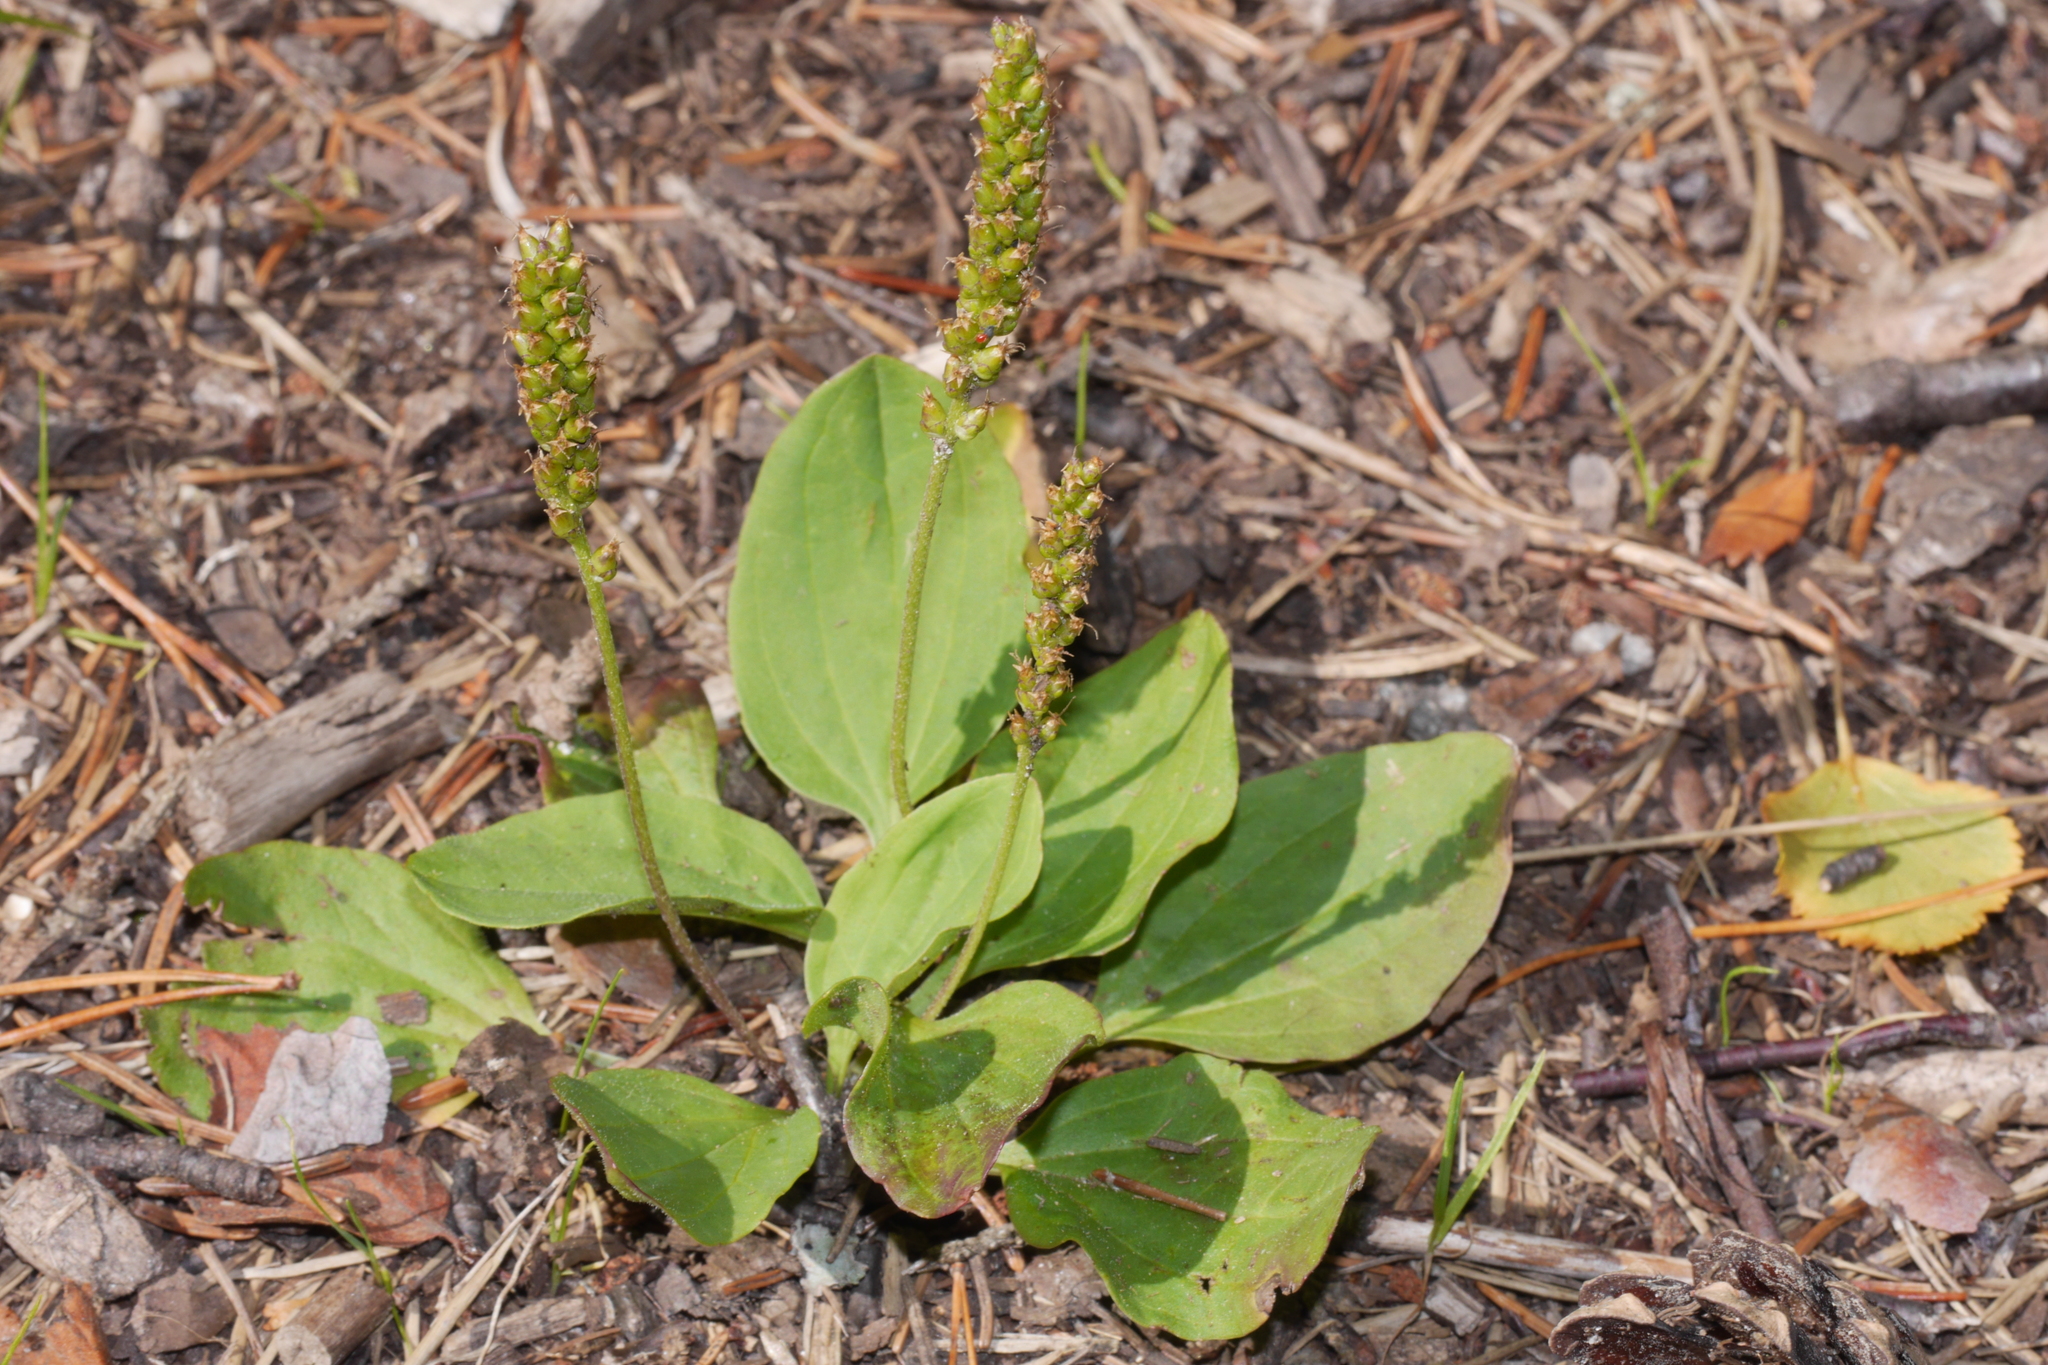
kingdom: Plantae
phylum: Tracheophyta
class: Magnoliopsida
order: Lamiales
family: Plantaginaceae
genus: Plantago
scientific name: Plantago major
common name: Common plantain
